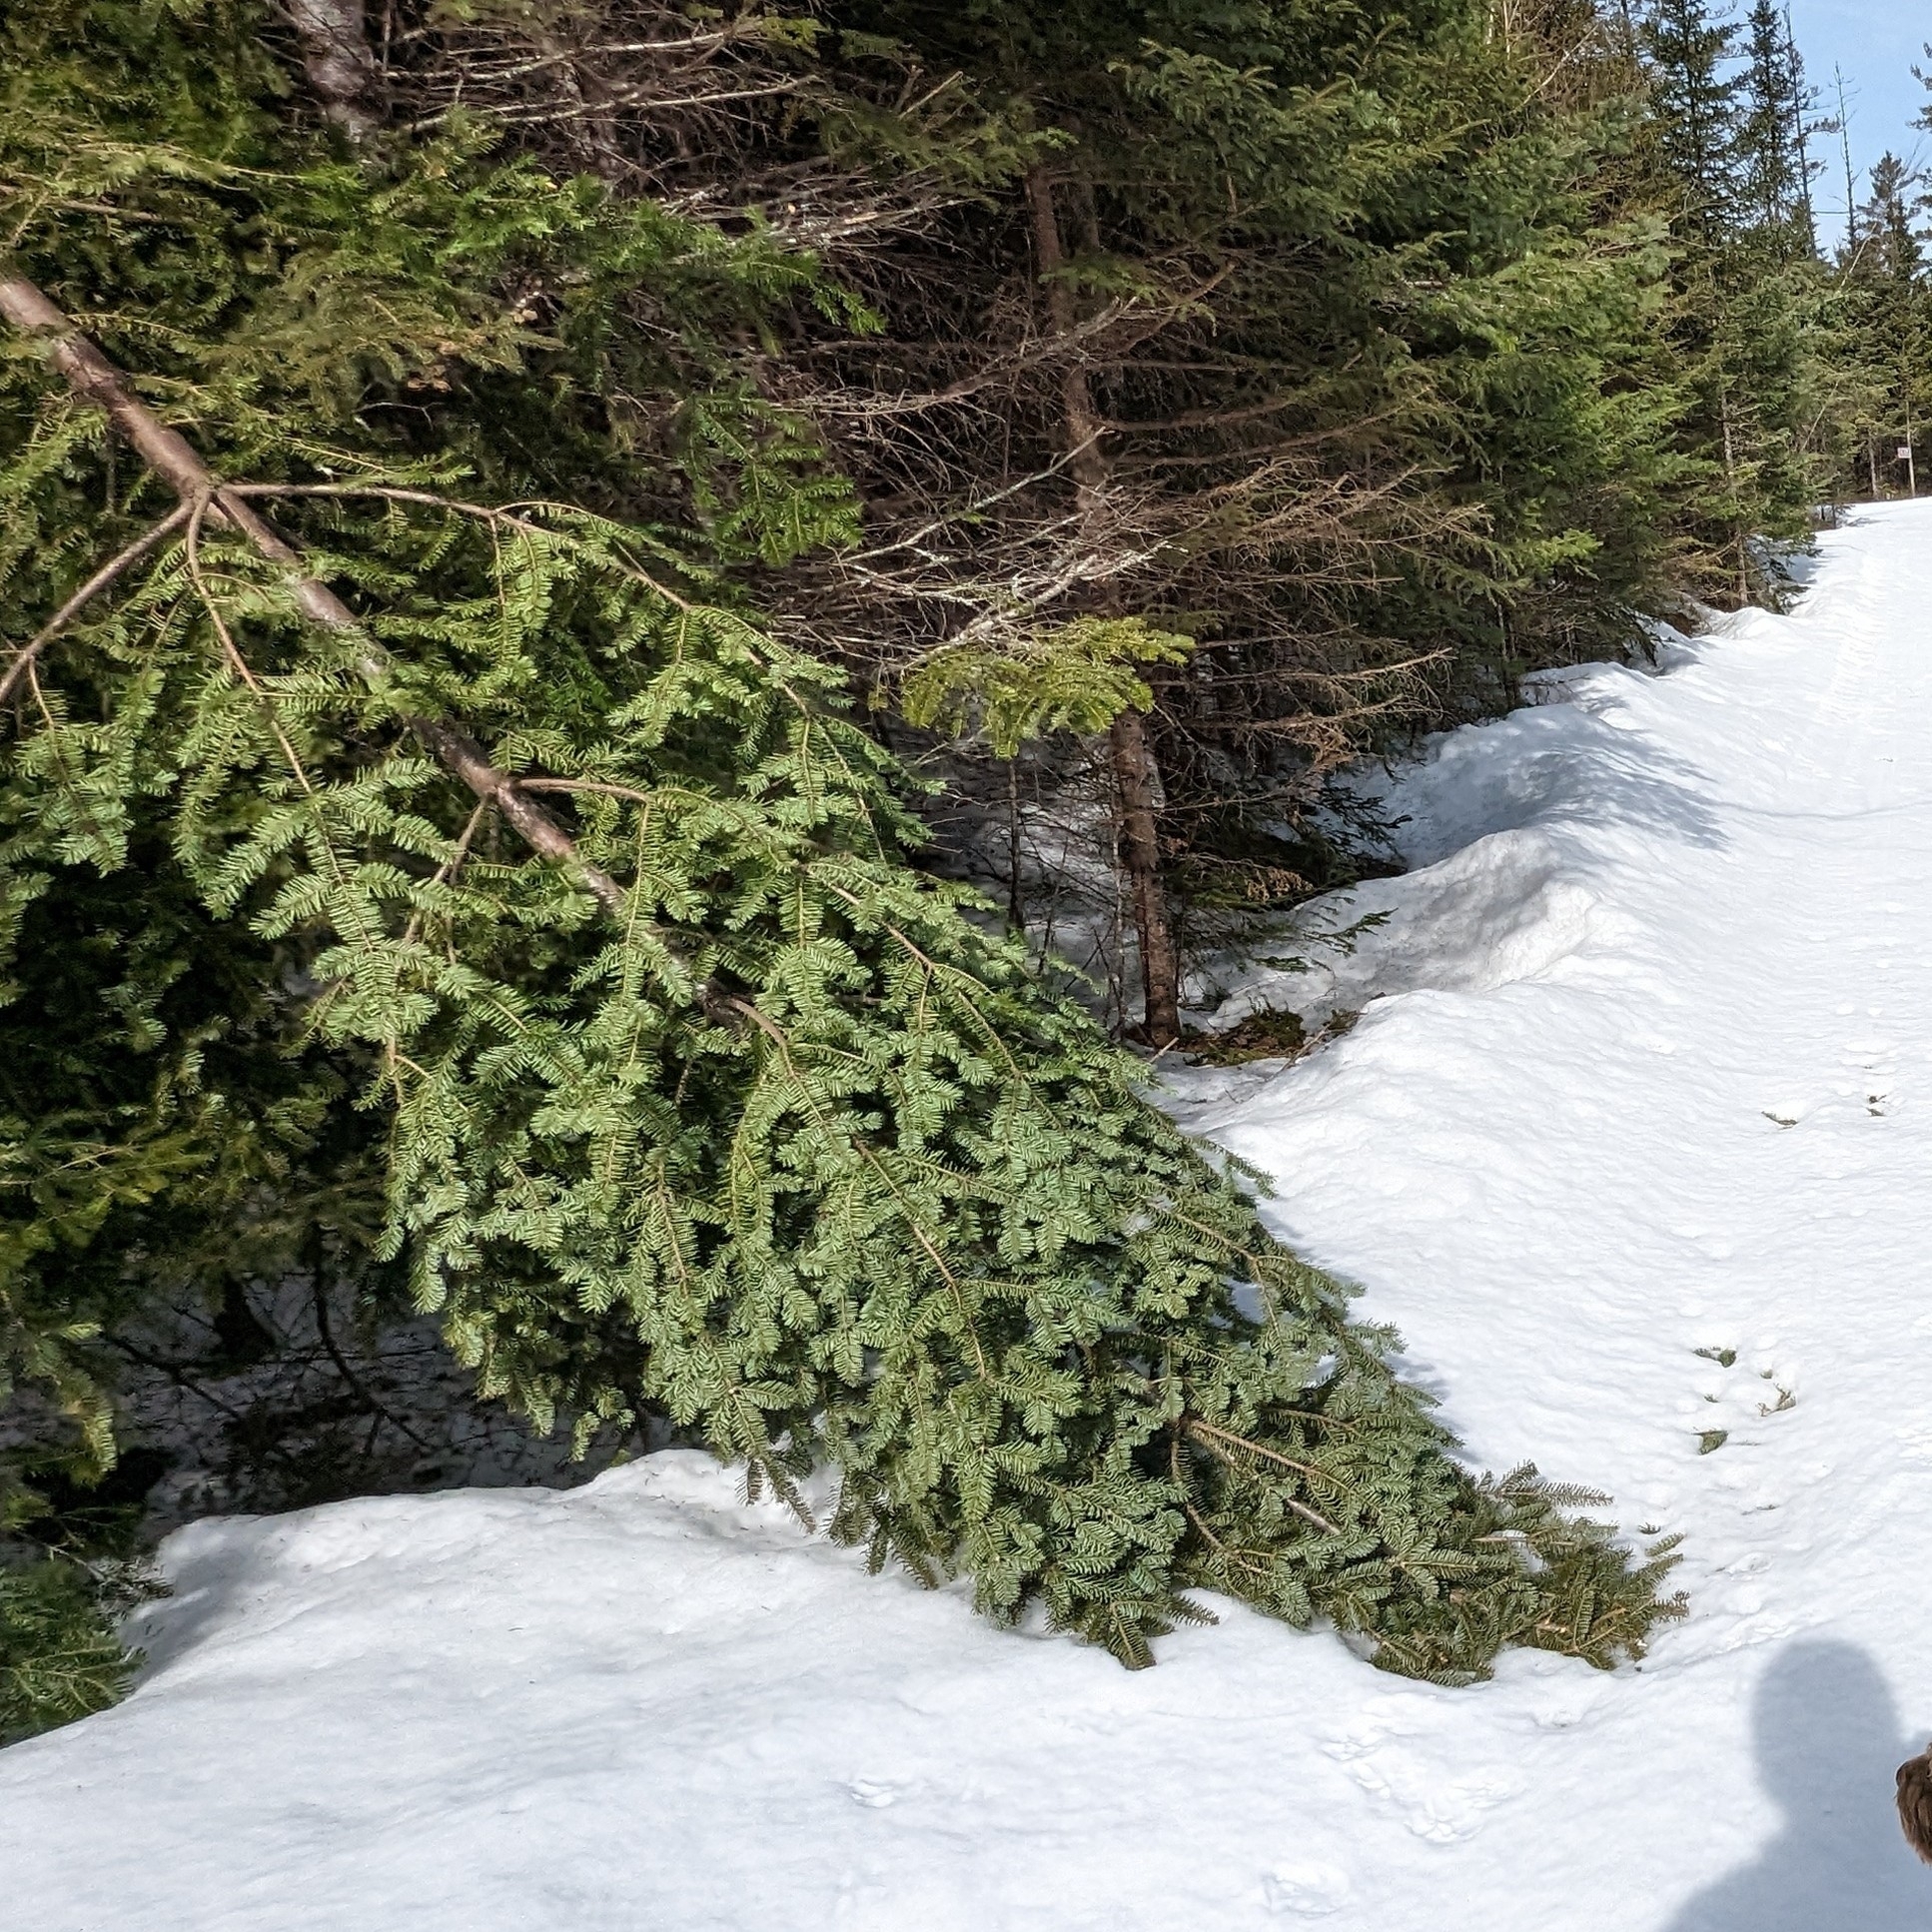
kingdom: Plantae
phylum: Tracheophyta
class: Pinopsida
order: Pinales
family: Pinaceae
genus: Abies
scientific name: Abies balsamea
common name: Balsam fir
